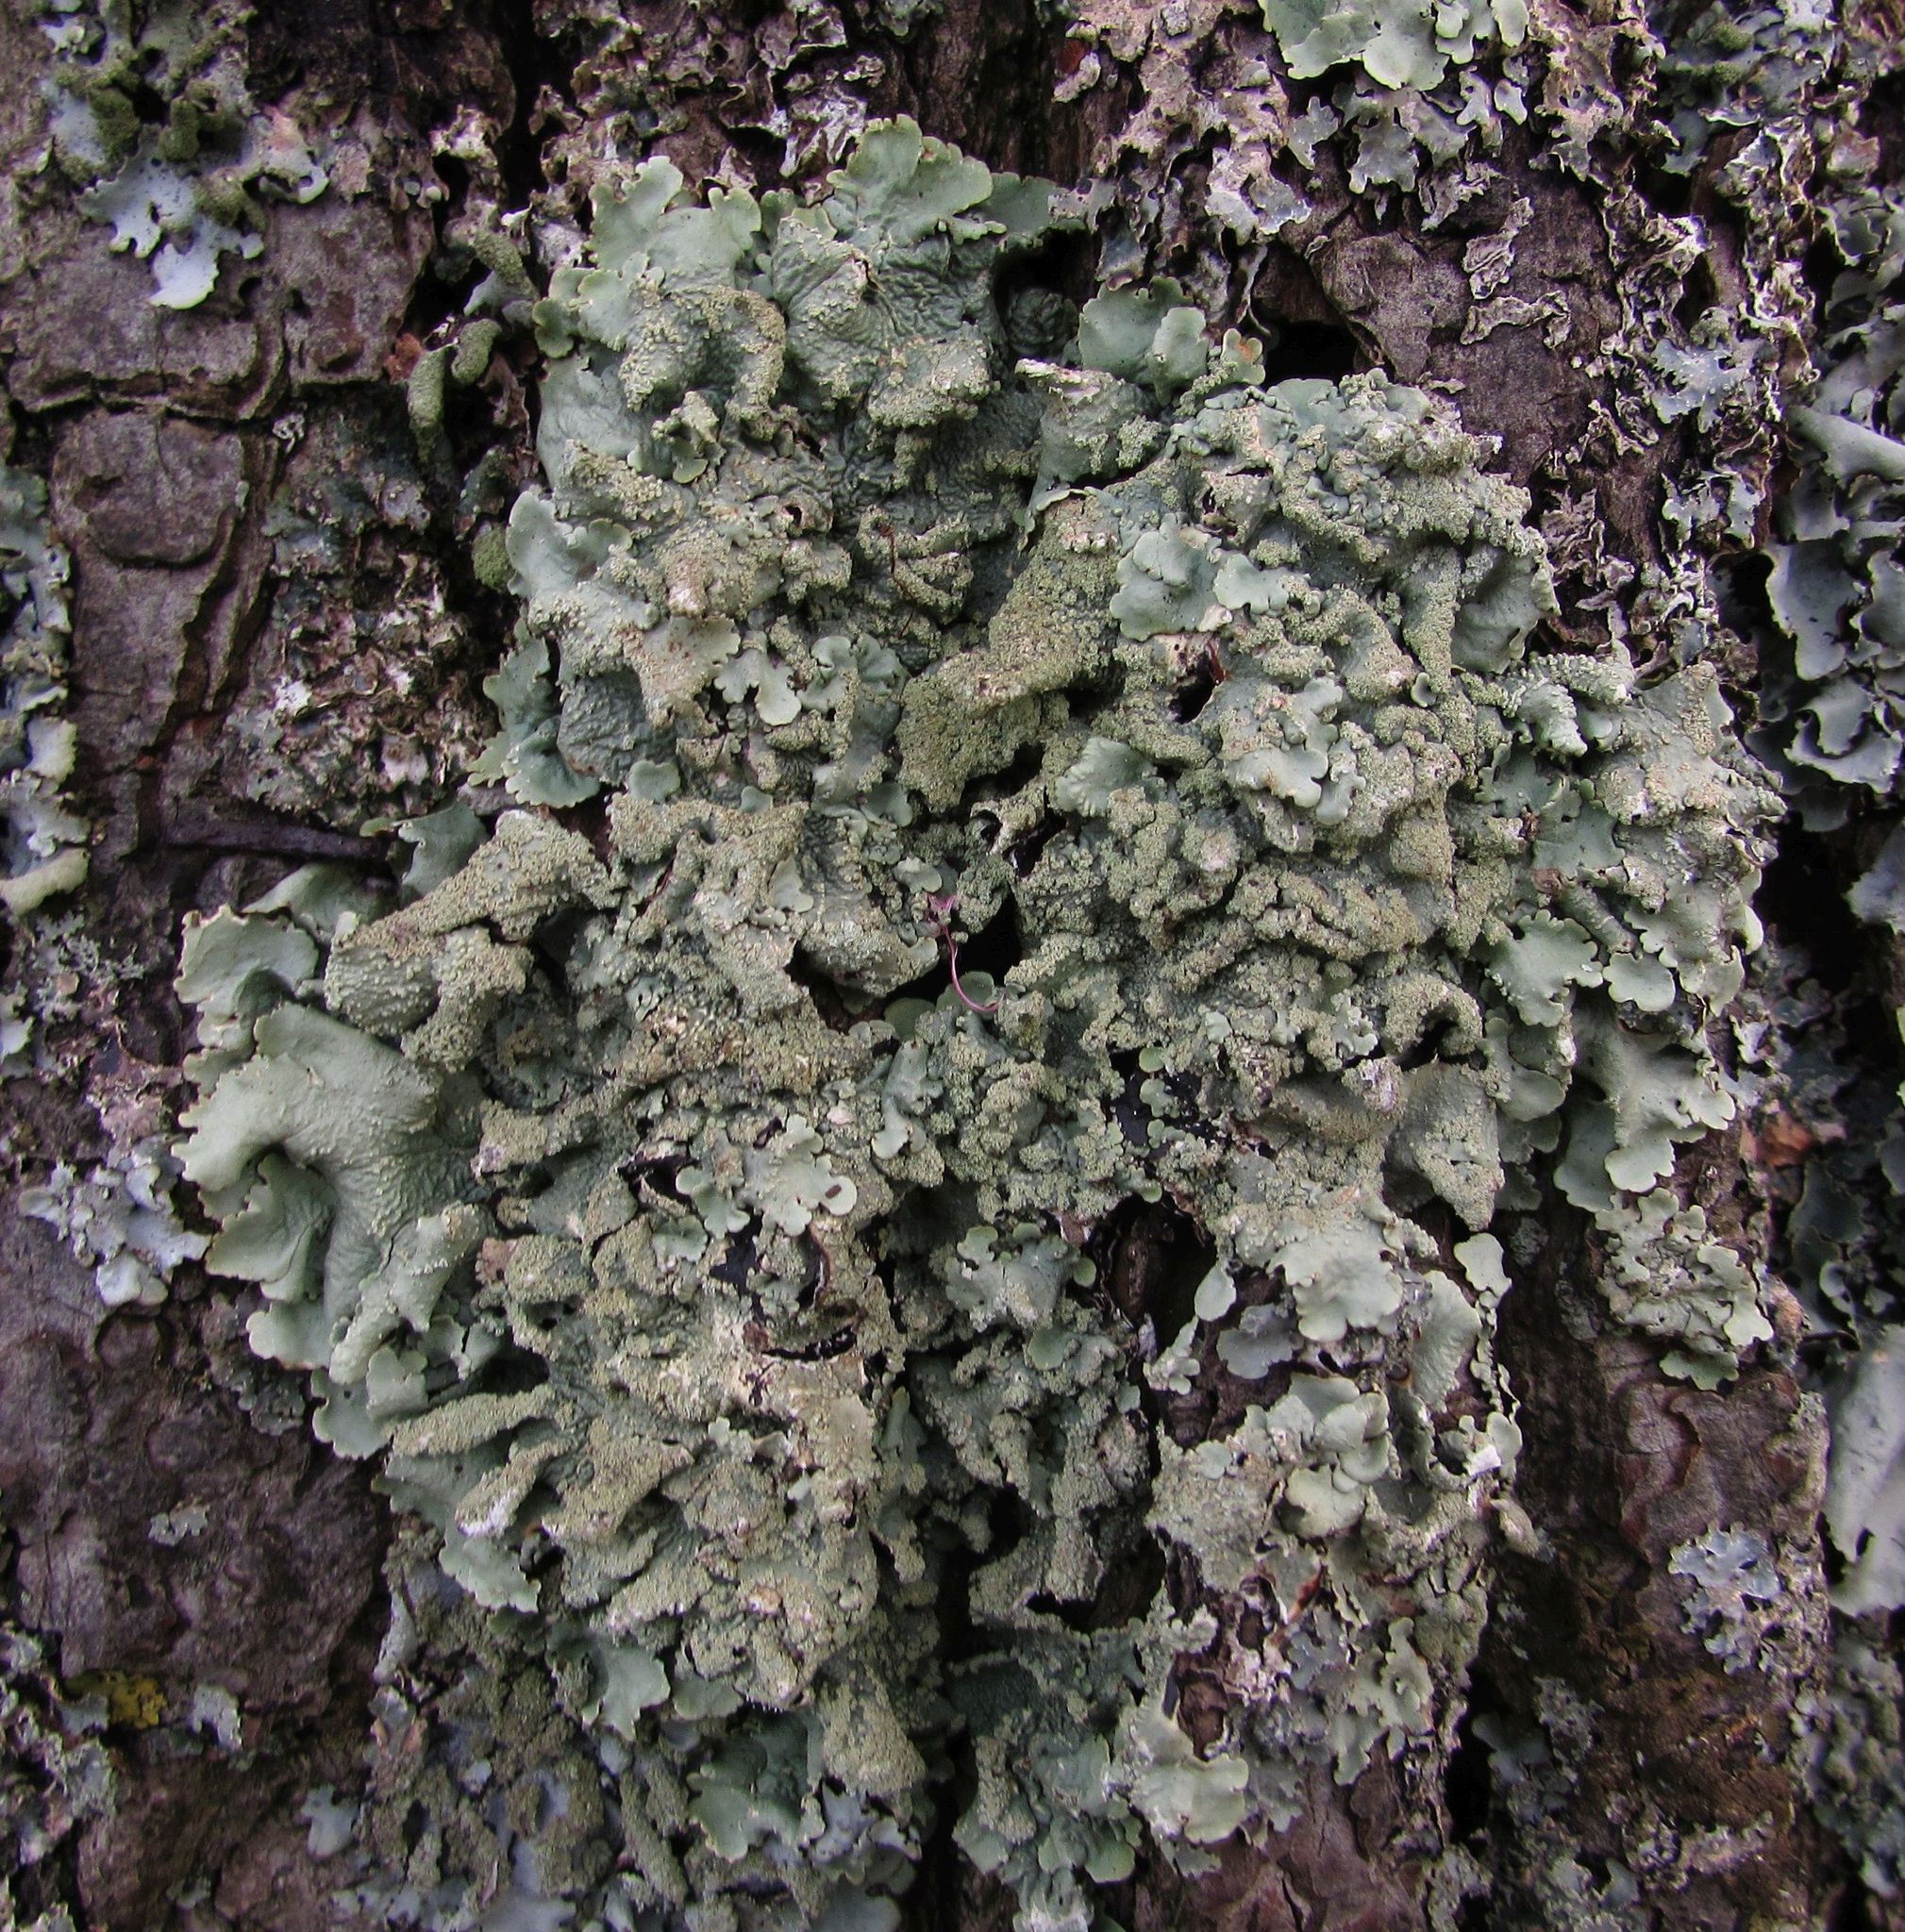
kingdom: Fungi
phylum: Ascomycota
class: Lecanoromycetes
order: Lecanorales
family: Parmeliaceae
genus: Flavoparmelia
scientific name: Flavoparmelia caperata
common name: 40-mile per hour lichen
